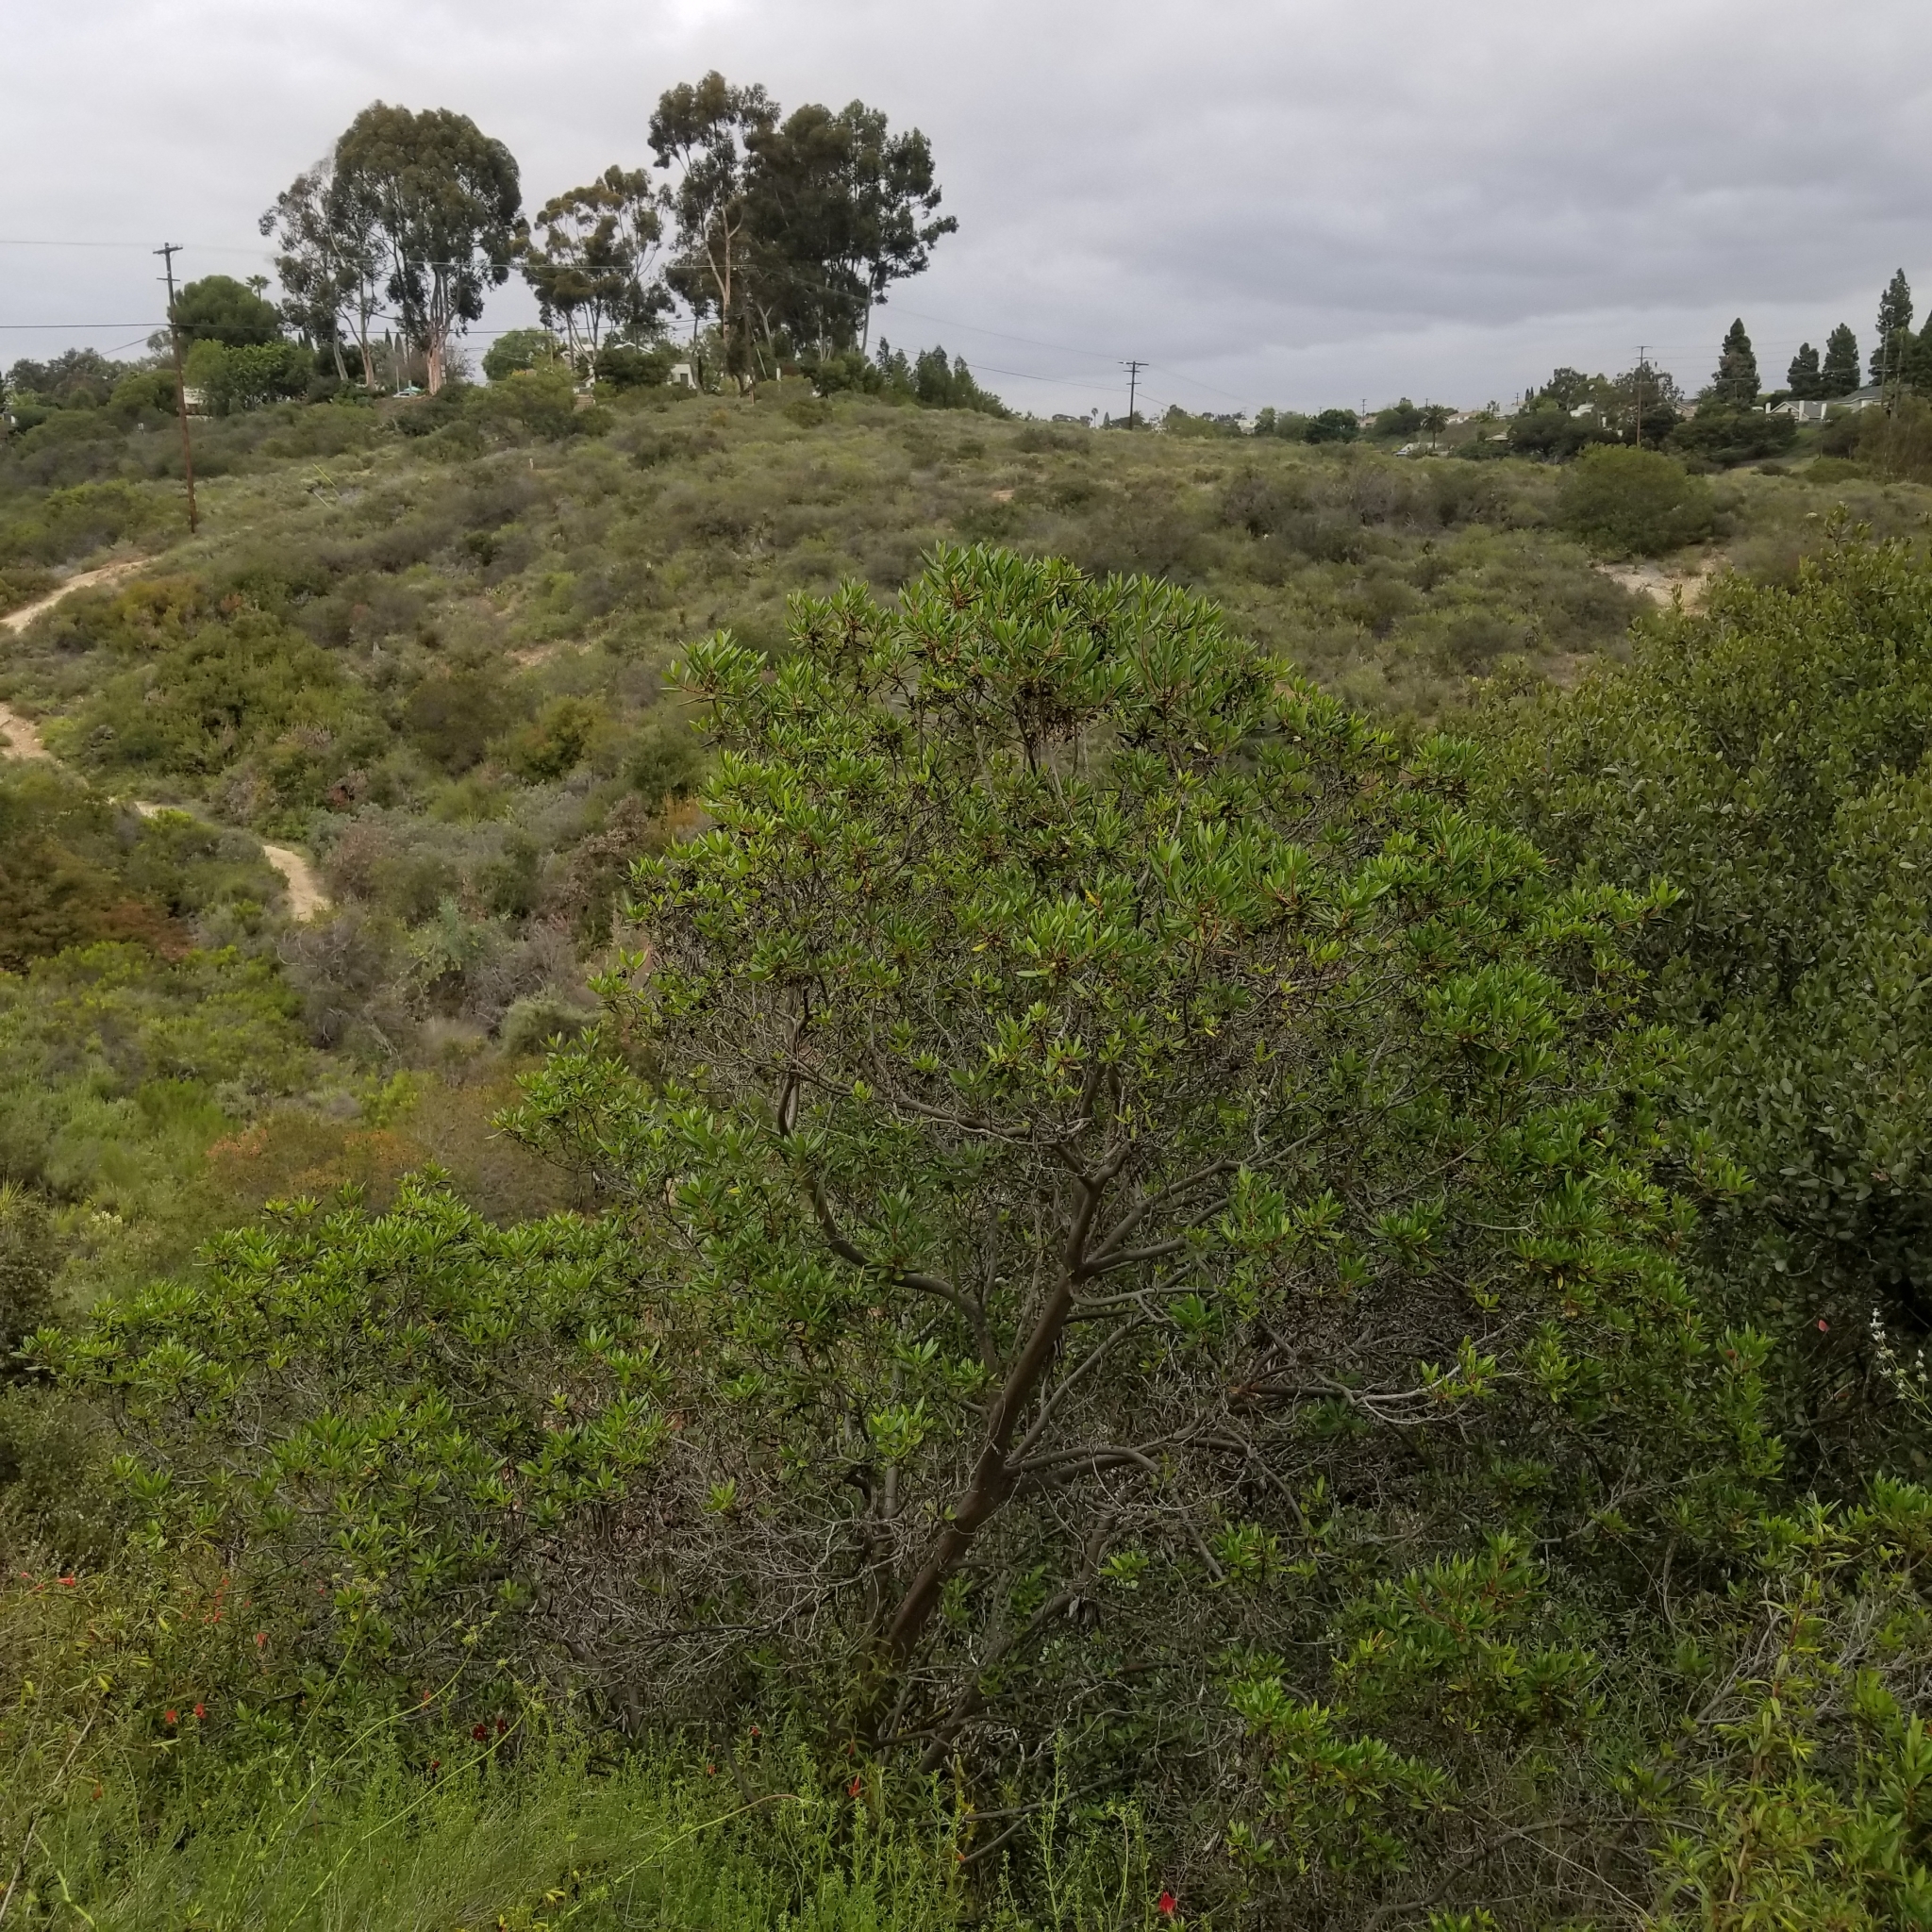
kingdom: Plantae
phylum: Tracheophyta
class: Magnoliopsida
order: Ericales
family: Ericaceae
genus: Arctostaphylos
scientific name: Arctostaphylos bicolor
